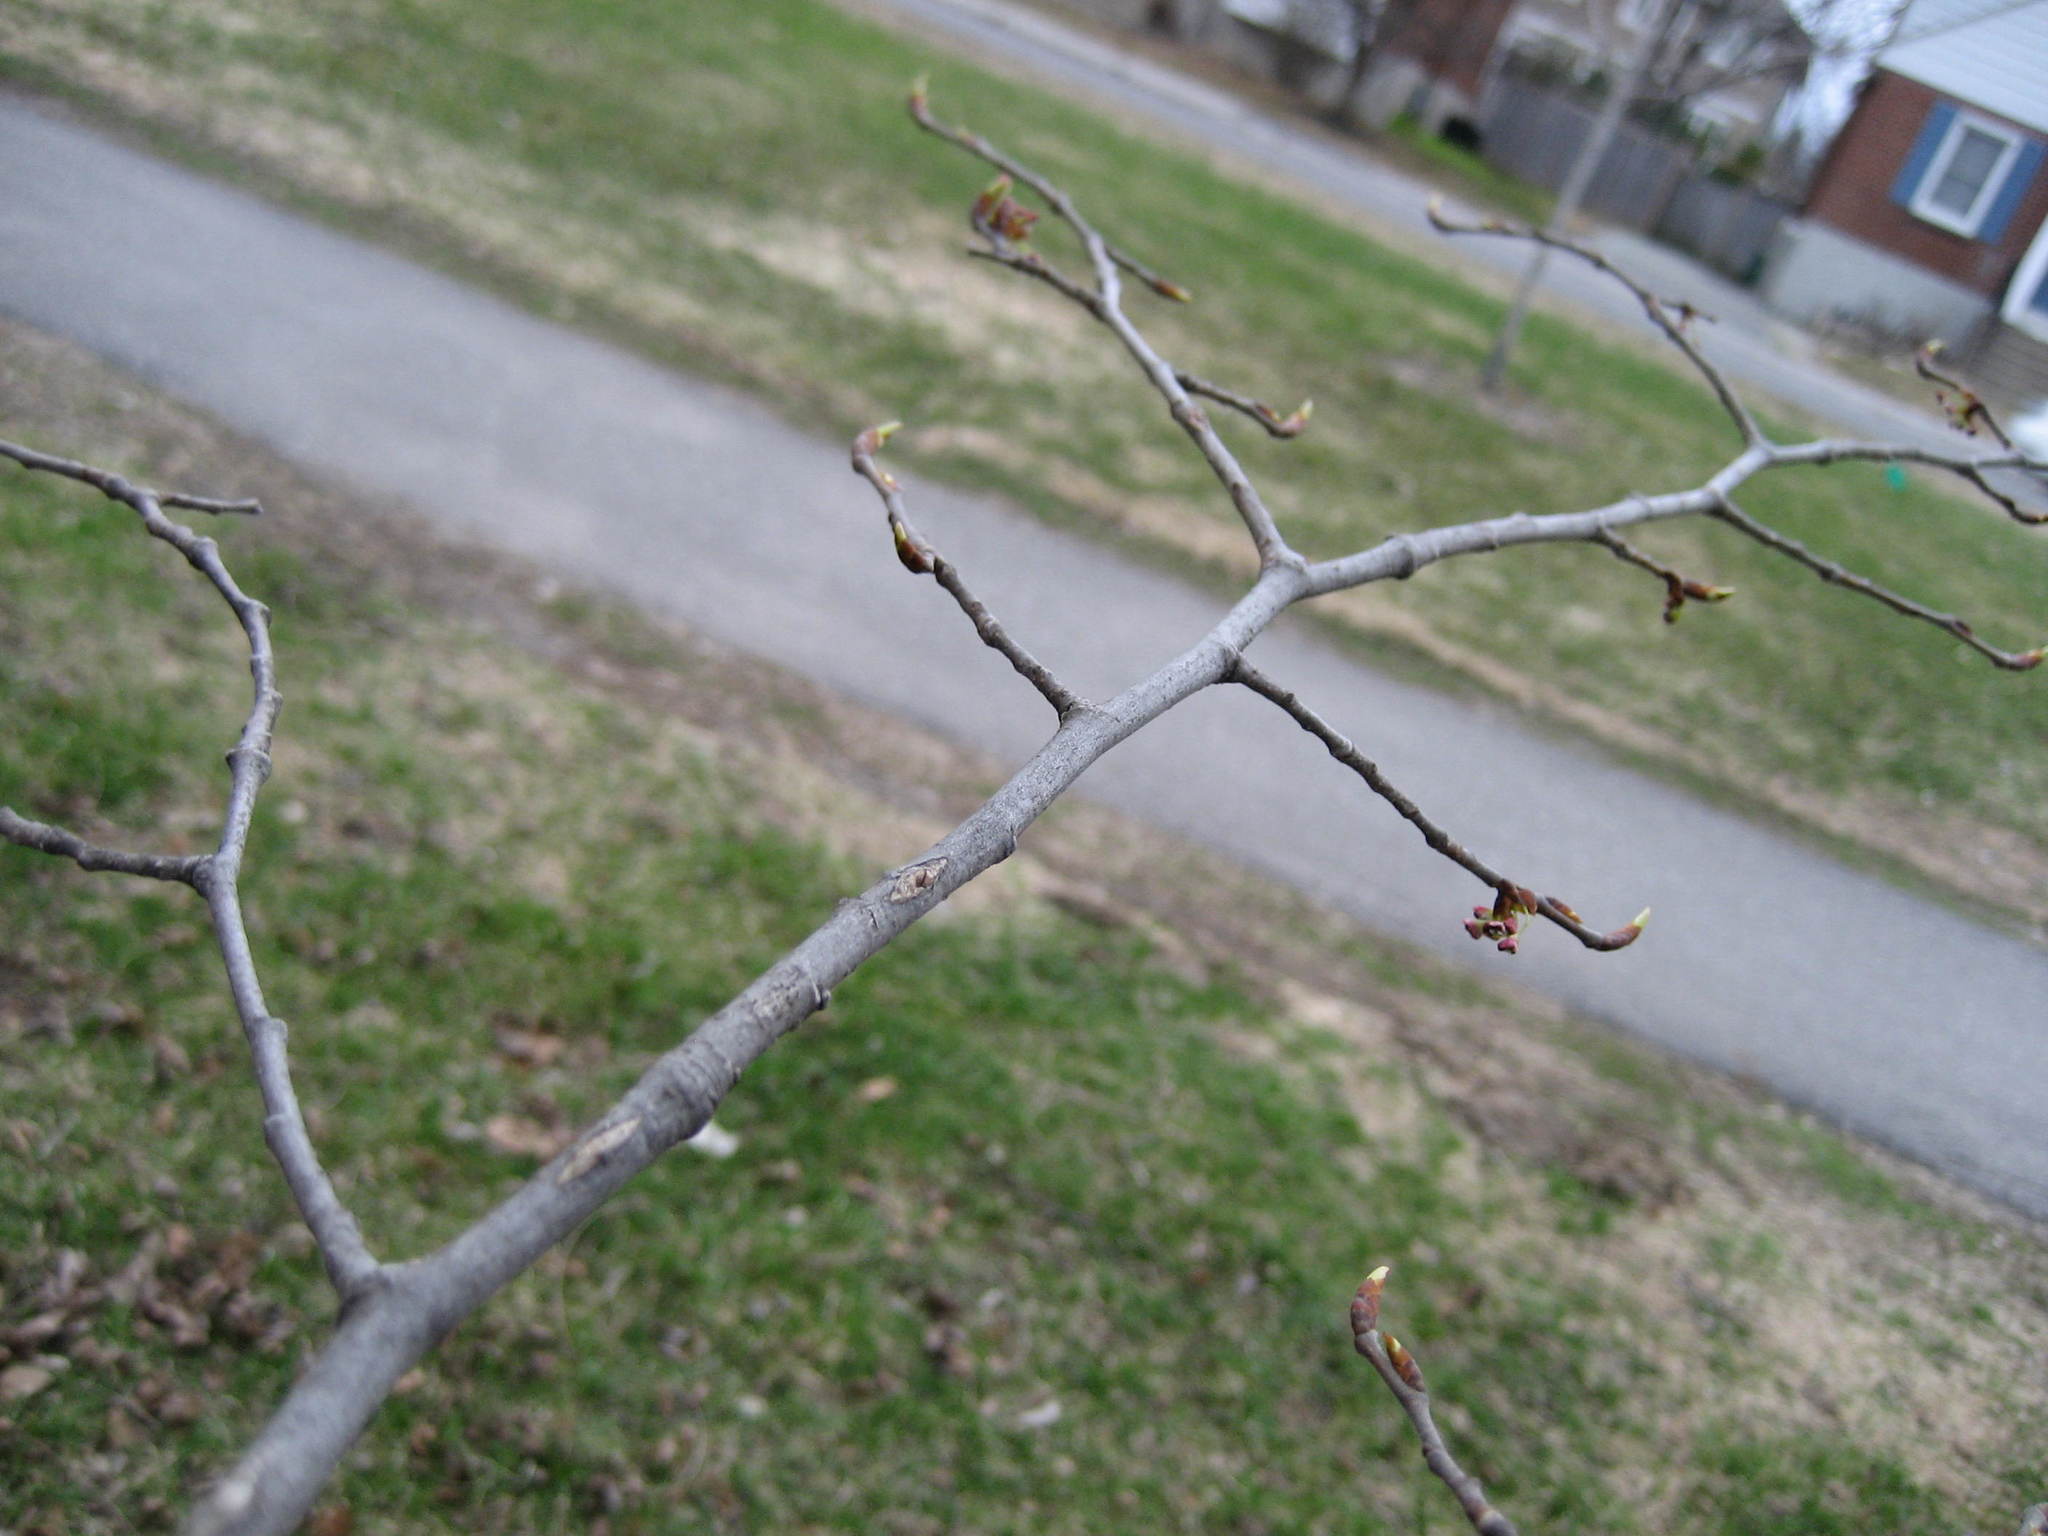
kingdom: Plantae
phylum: Tracheophyta
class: Magnoliopsida
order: Rosales
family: Ulmaceae
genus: Ulmus
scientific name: Ulmus americana
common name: American elm
